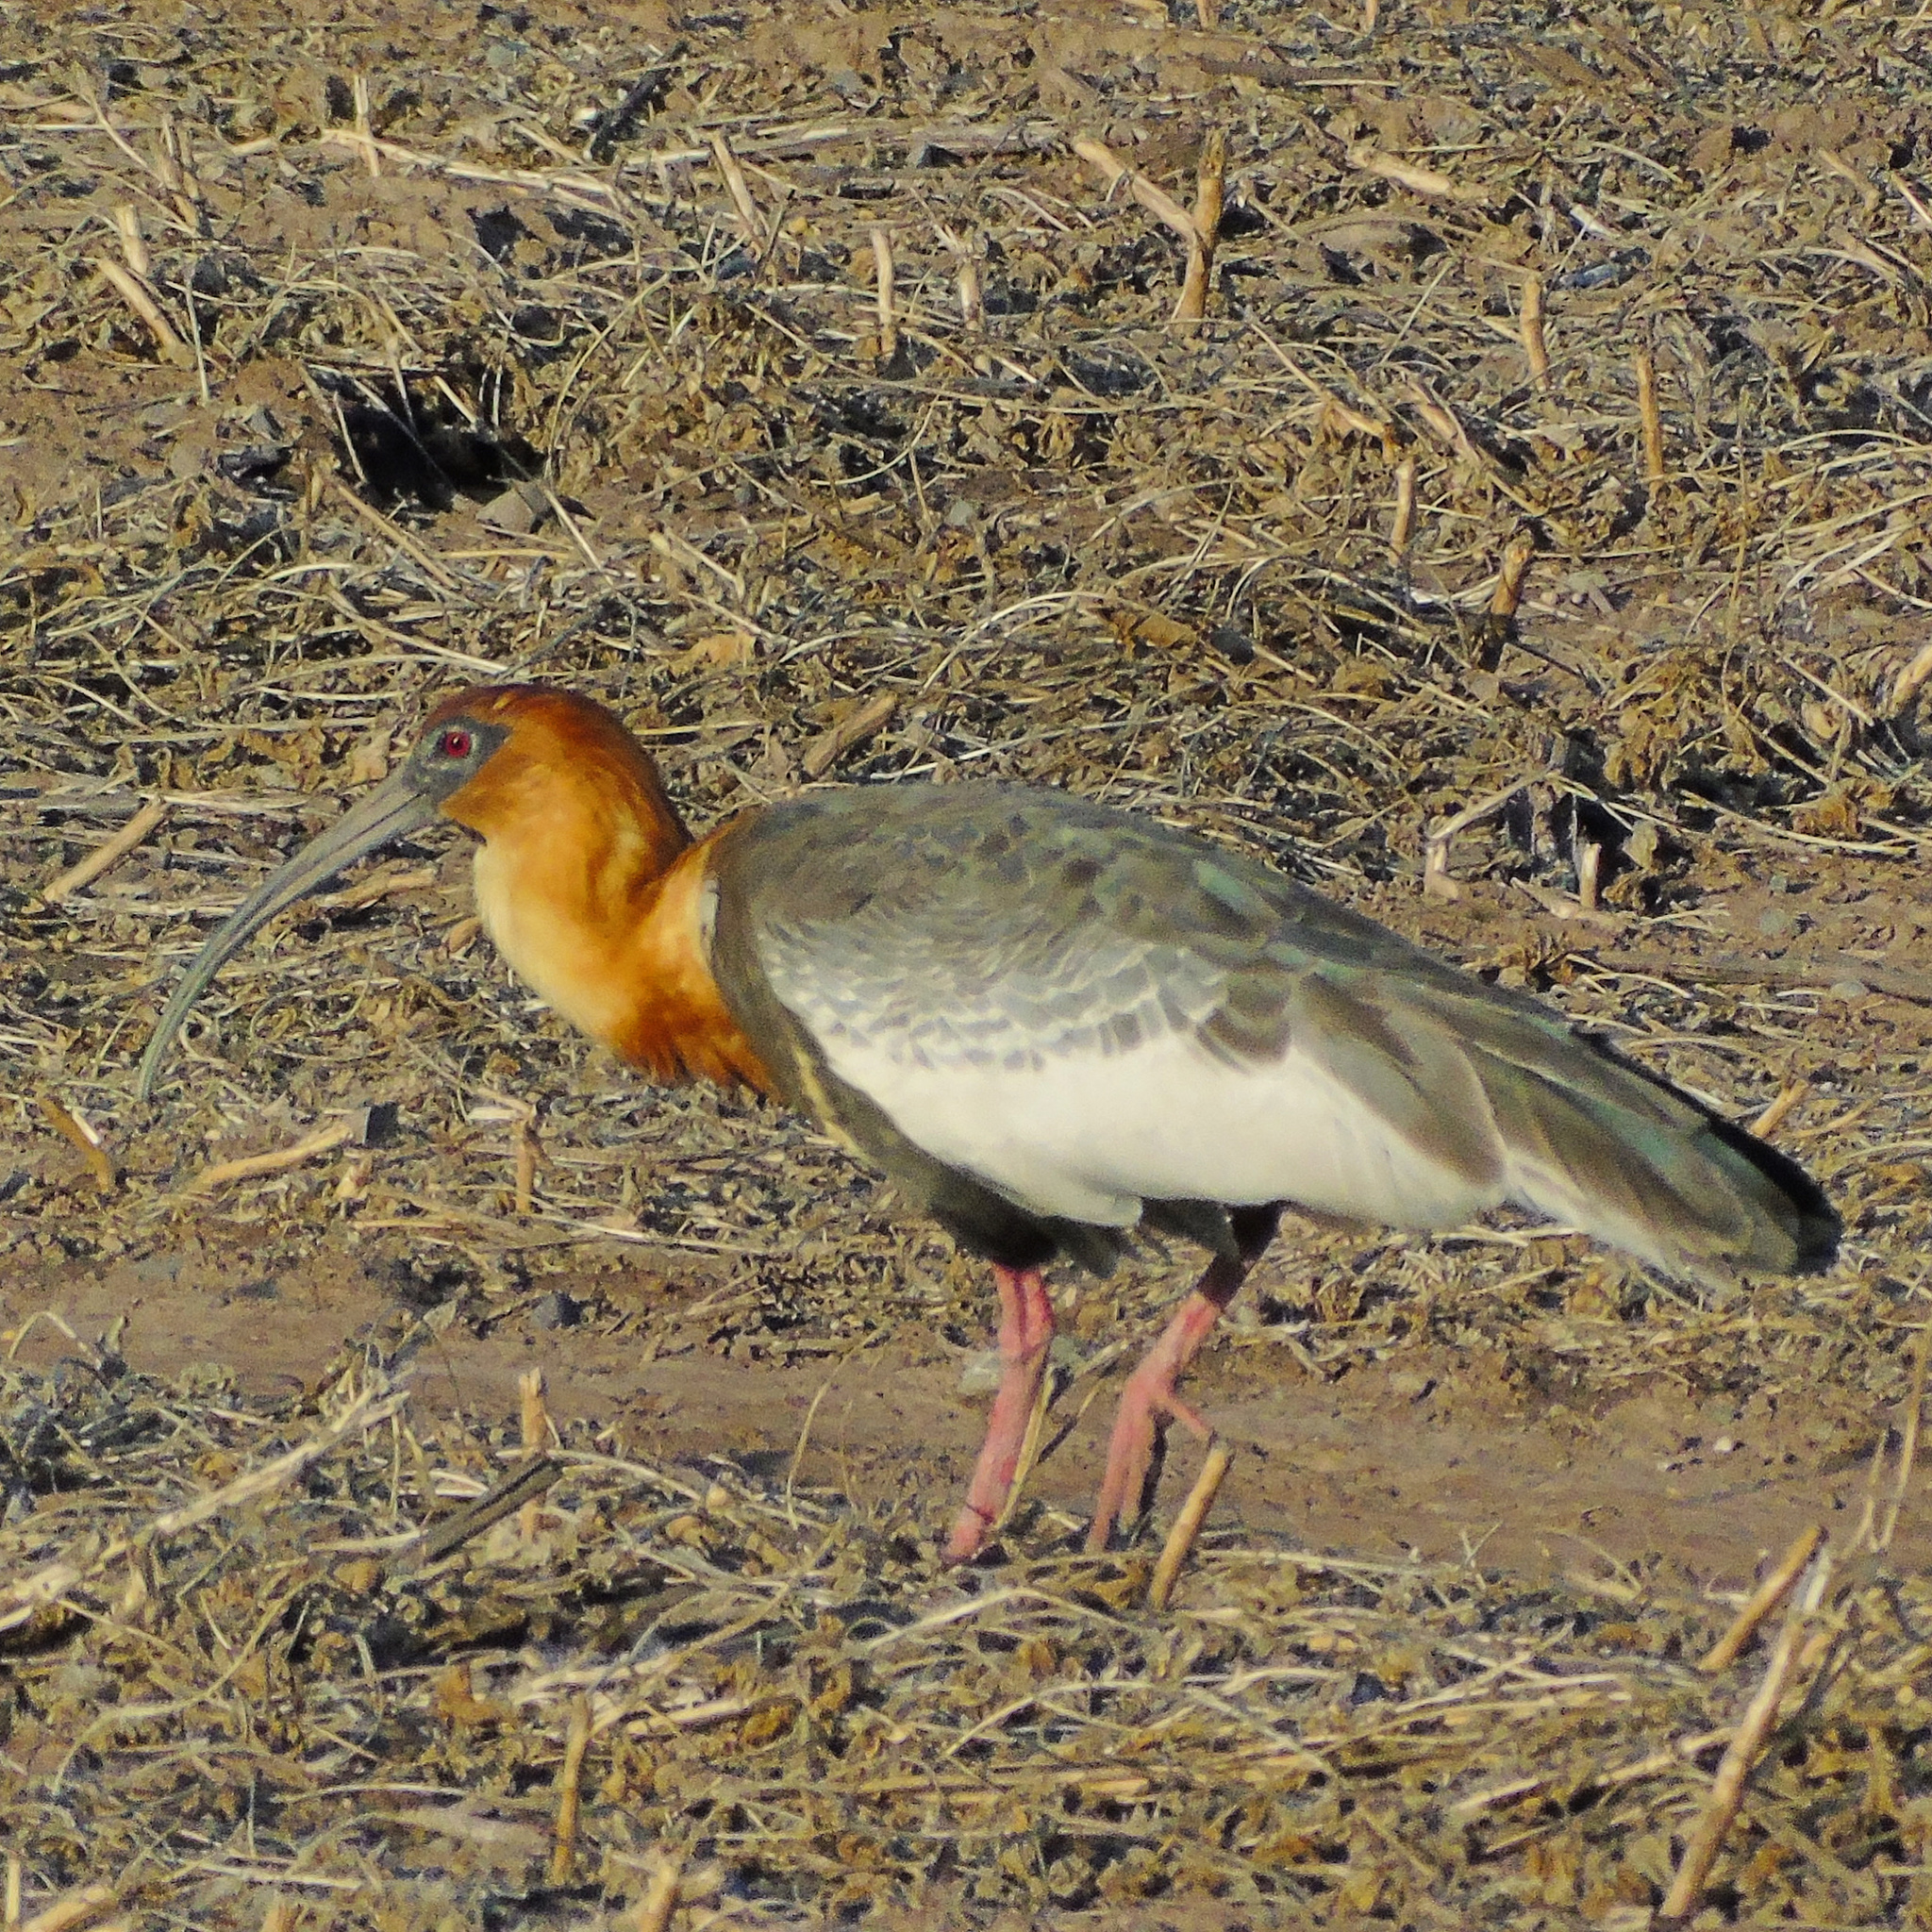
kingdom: Animalia
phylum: Chordata
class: Aves
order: Pelecaniformes
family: Threskiornithidae
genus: Theristicus
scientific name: Theristicus caudatus
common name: Buff-necked ibis
